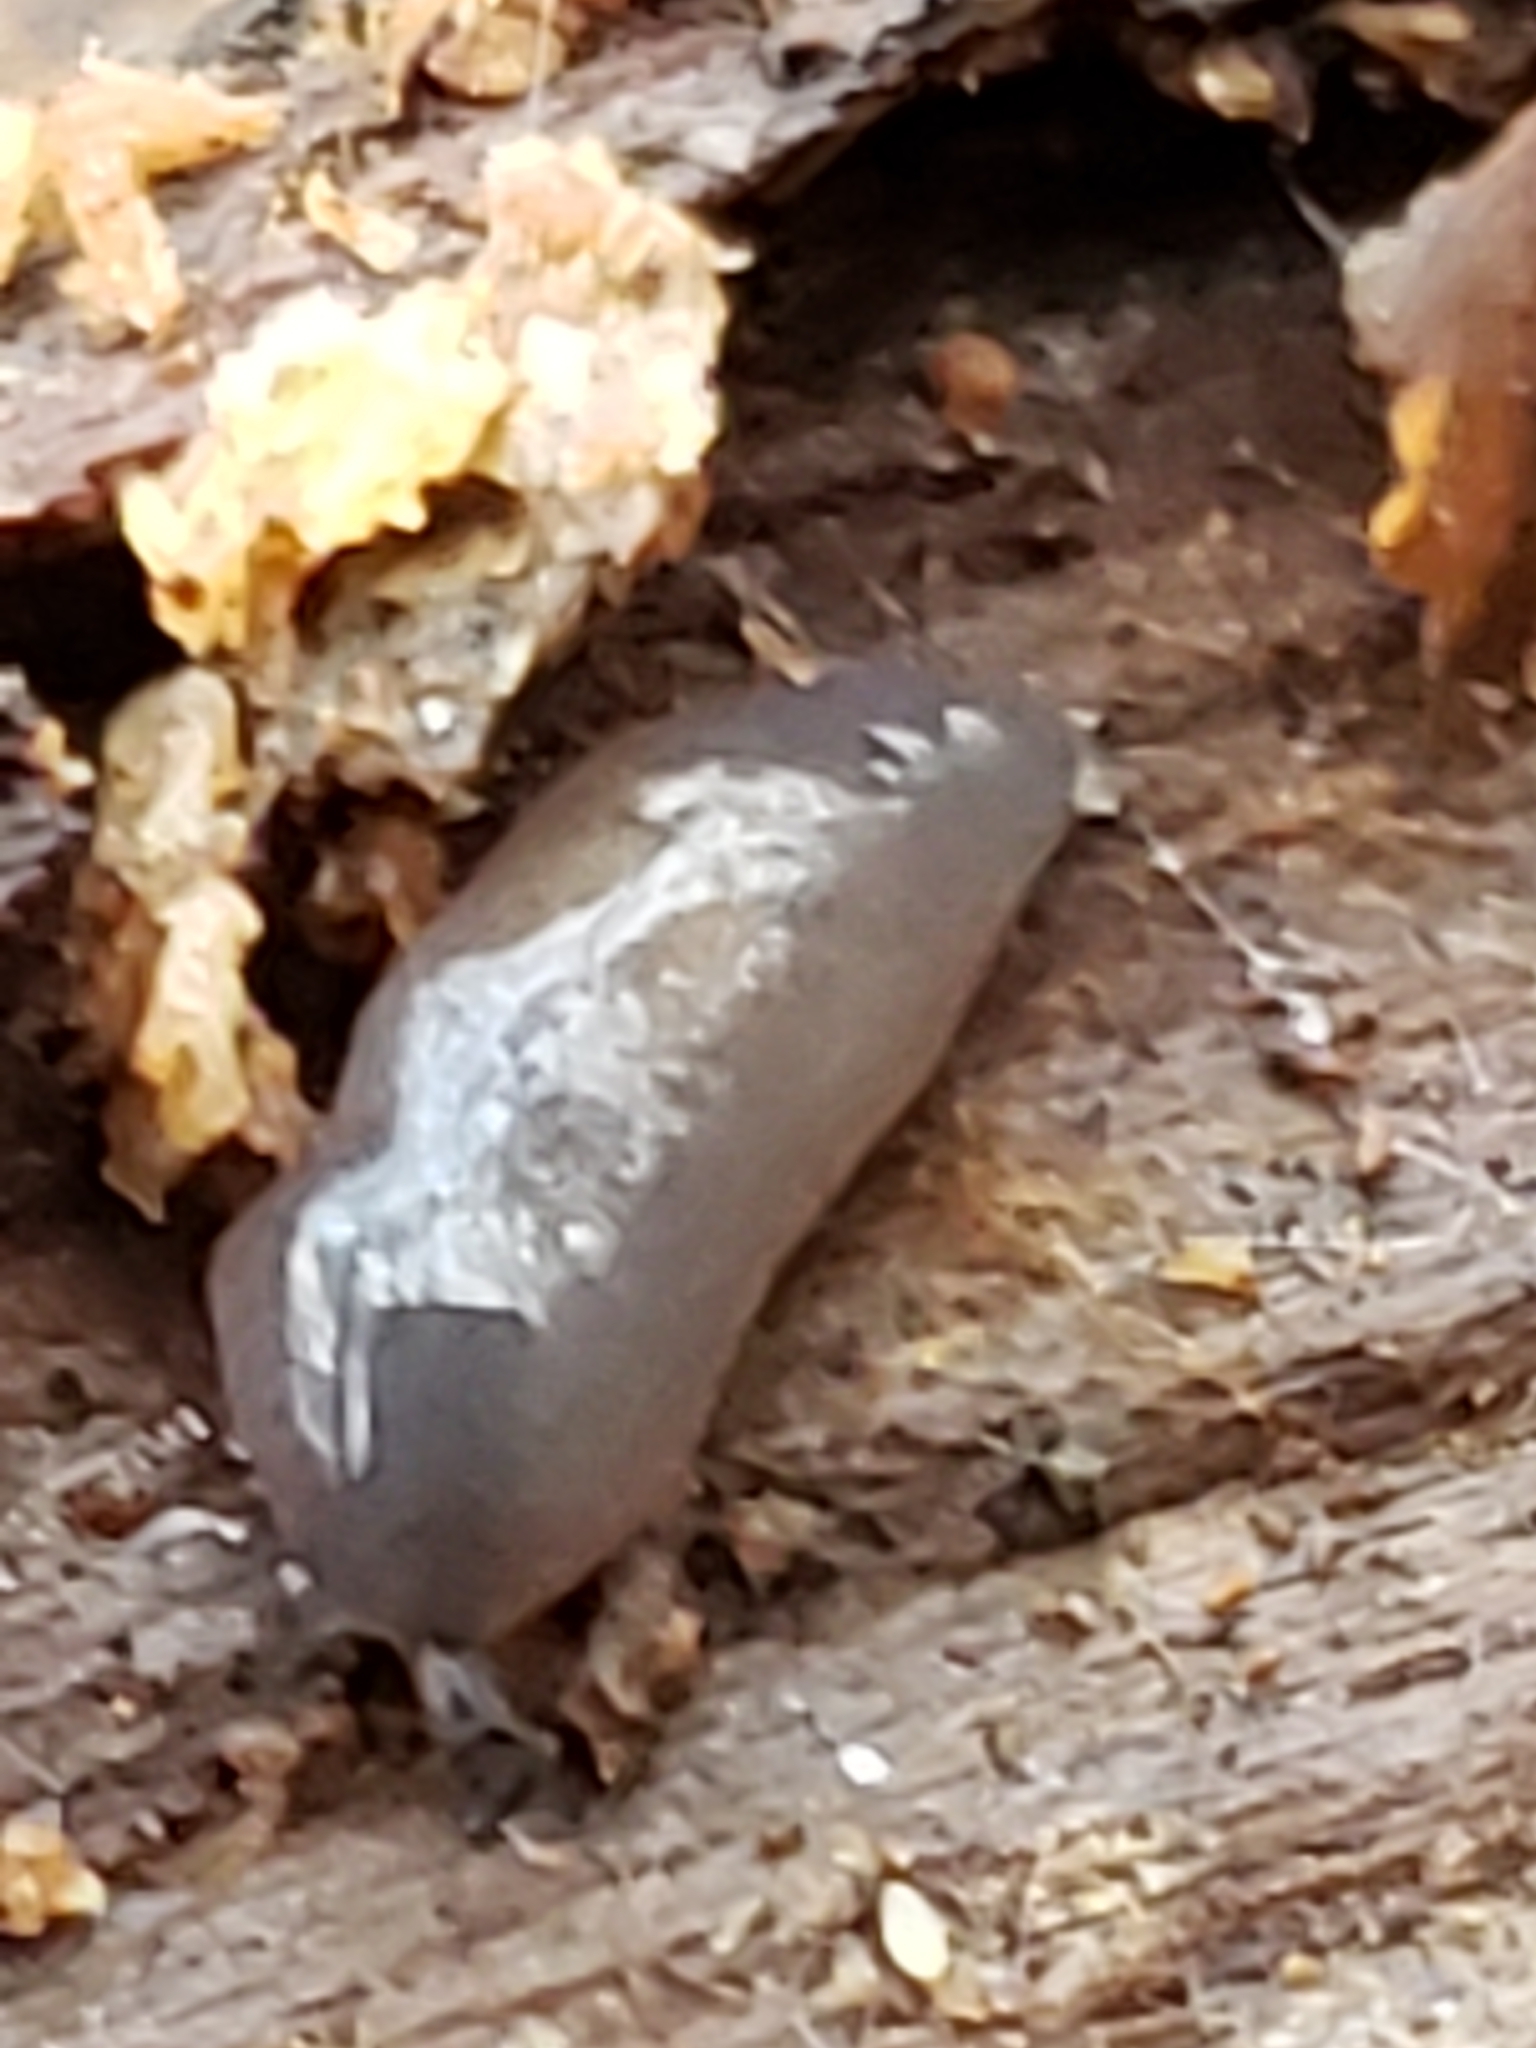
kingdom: Animalia
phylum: Mollusca
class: Gastropoda
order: Stylommatophora
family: Philomycidae
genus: Pallifera
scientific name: Pallifera dorsalis
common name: Pale mantleslug
